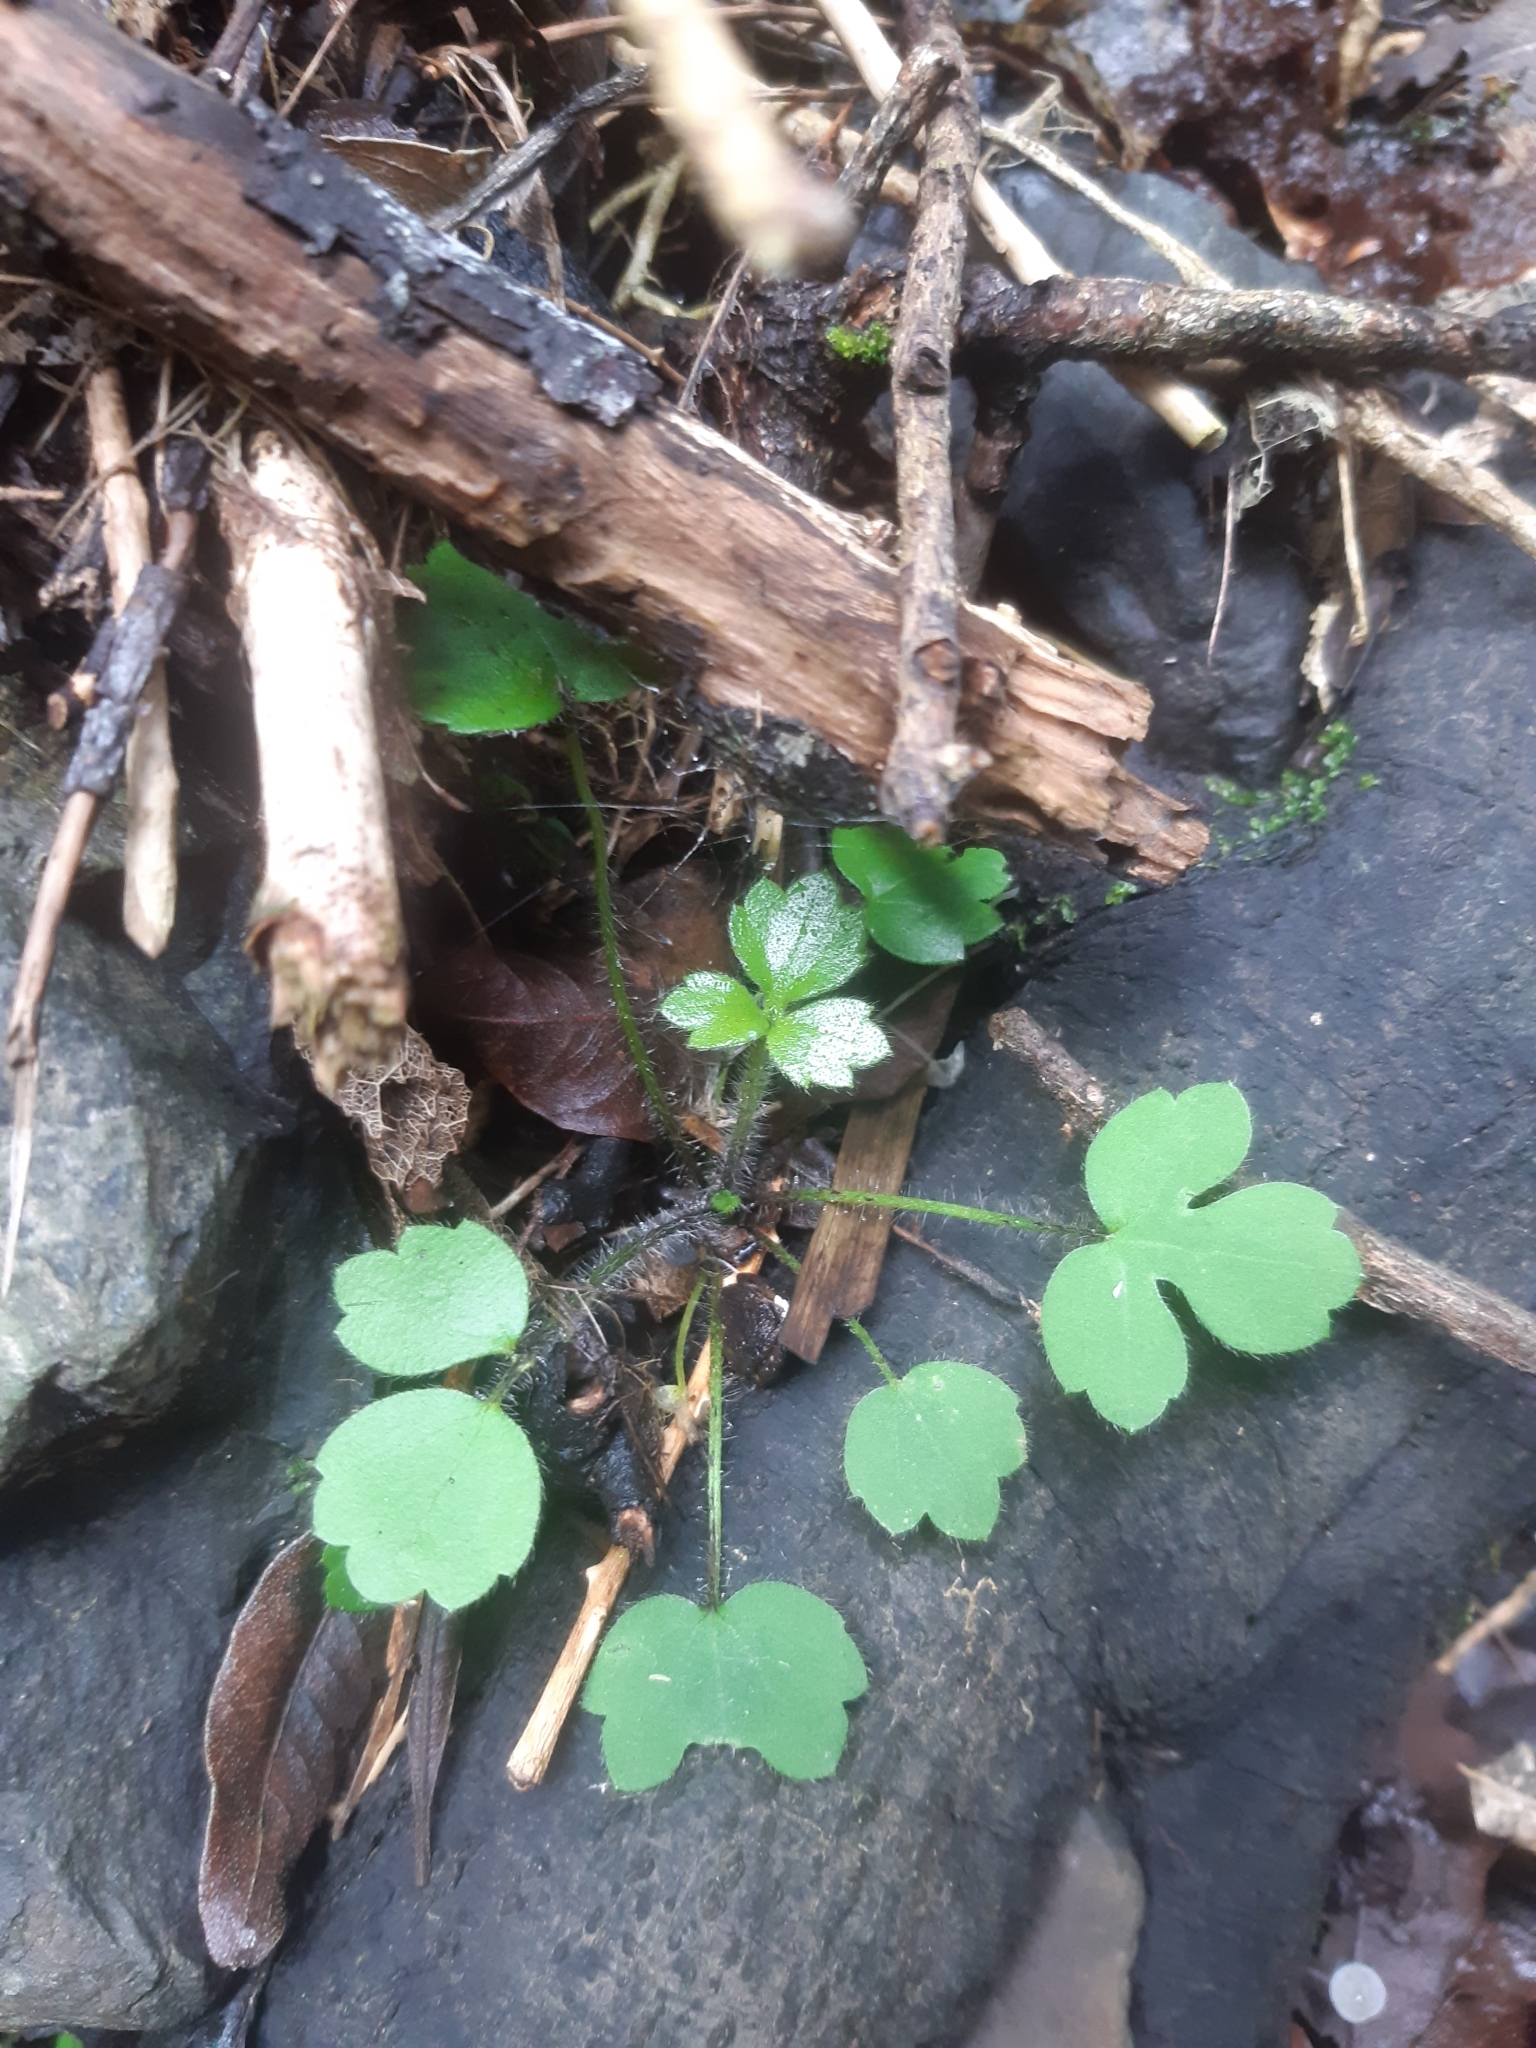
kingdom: Plantae
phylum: Tracheophyta
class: Magnoliopsida
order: Ranunculales
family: Ranunculaceae
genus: Ranunculus
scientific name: Ranunculus reflexus
